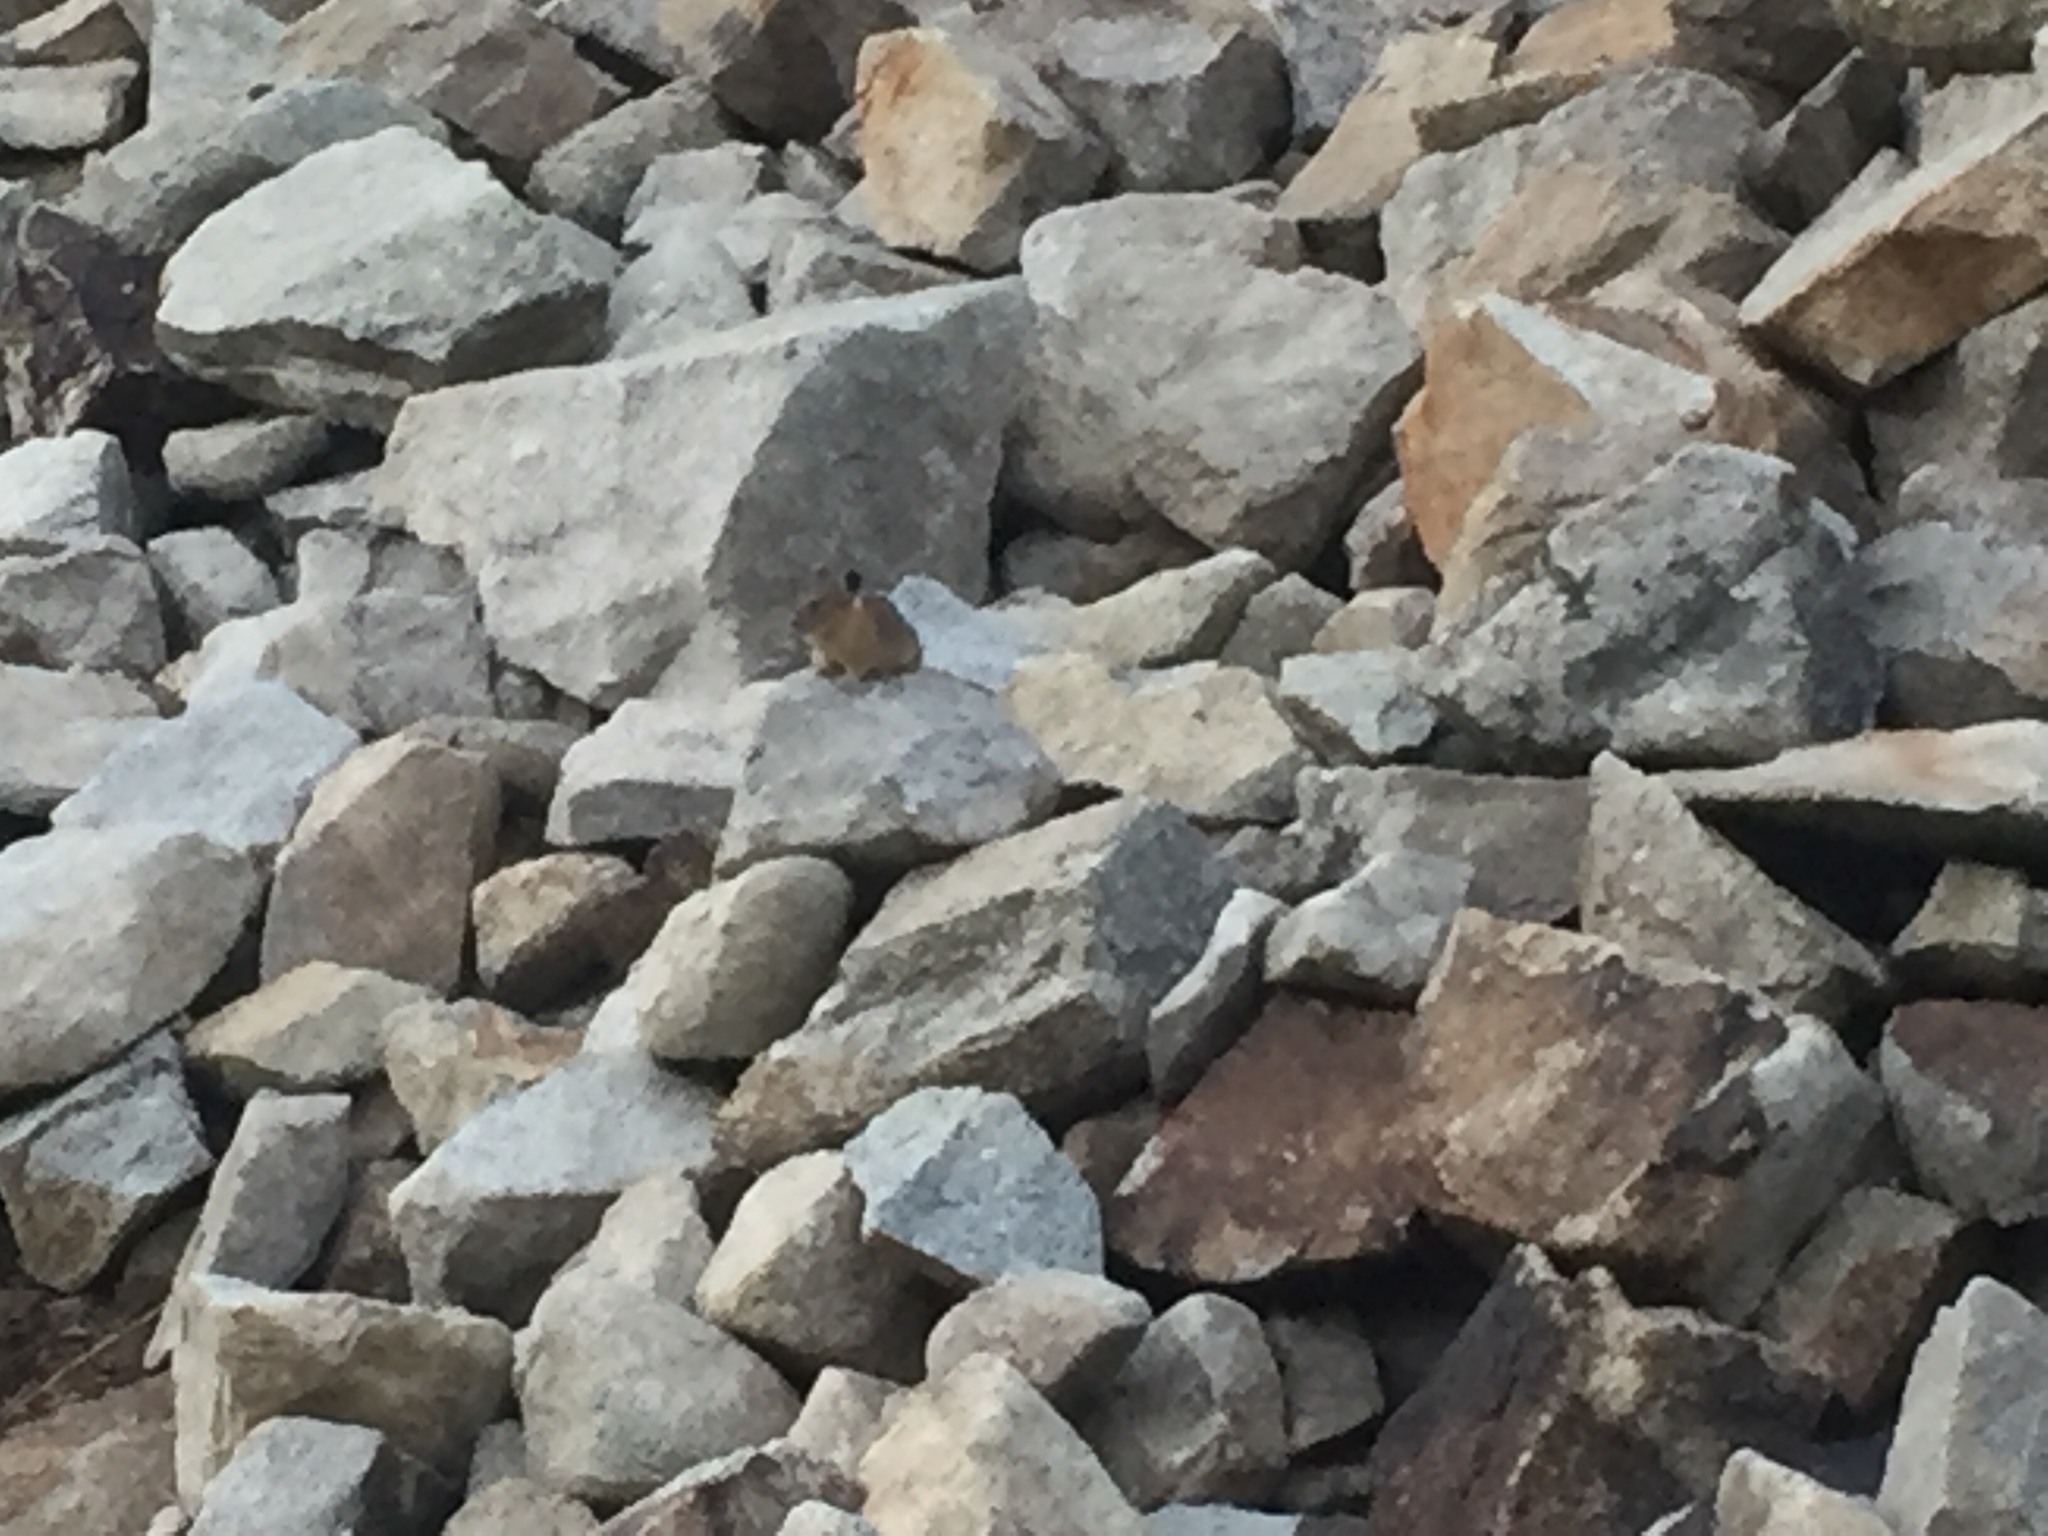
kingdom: Animalia
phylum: Chordata
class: Mammalia
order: Lagomorpha
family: Ochotonidae
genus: Ochotona
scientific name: Ochotona princeps
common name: American pika
